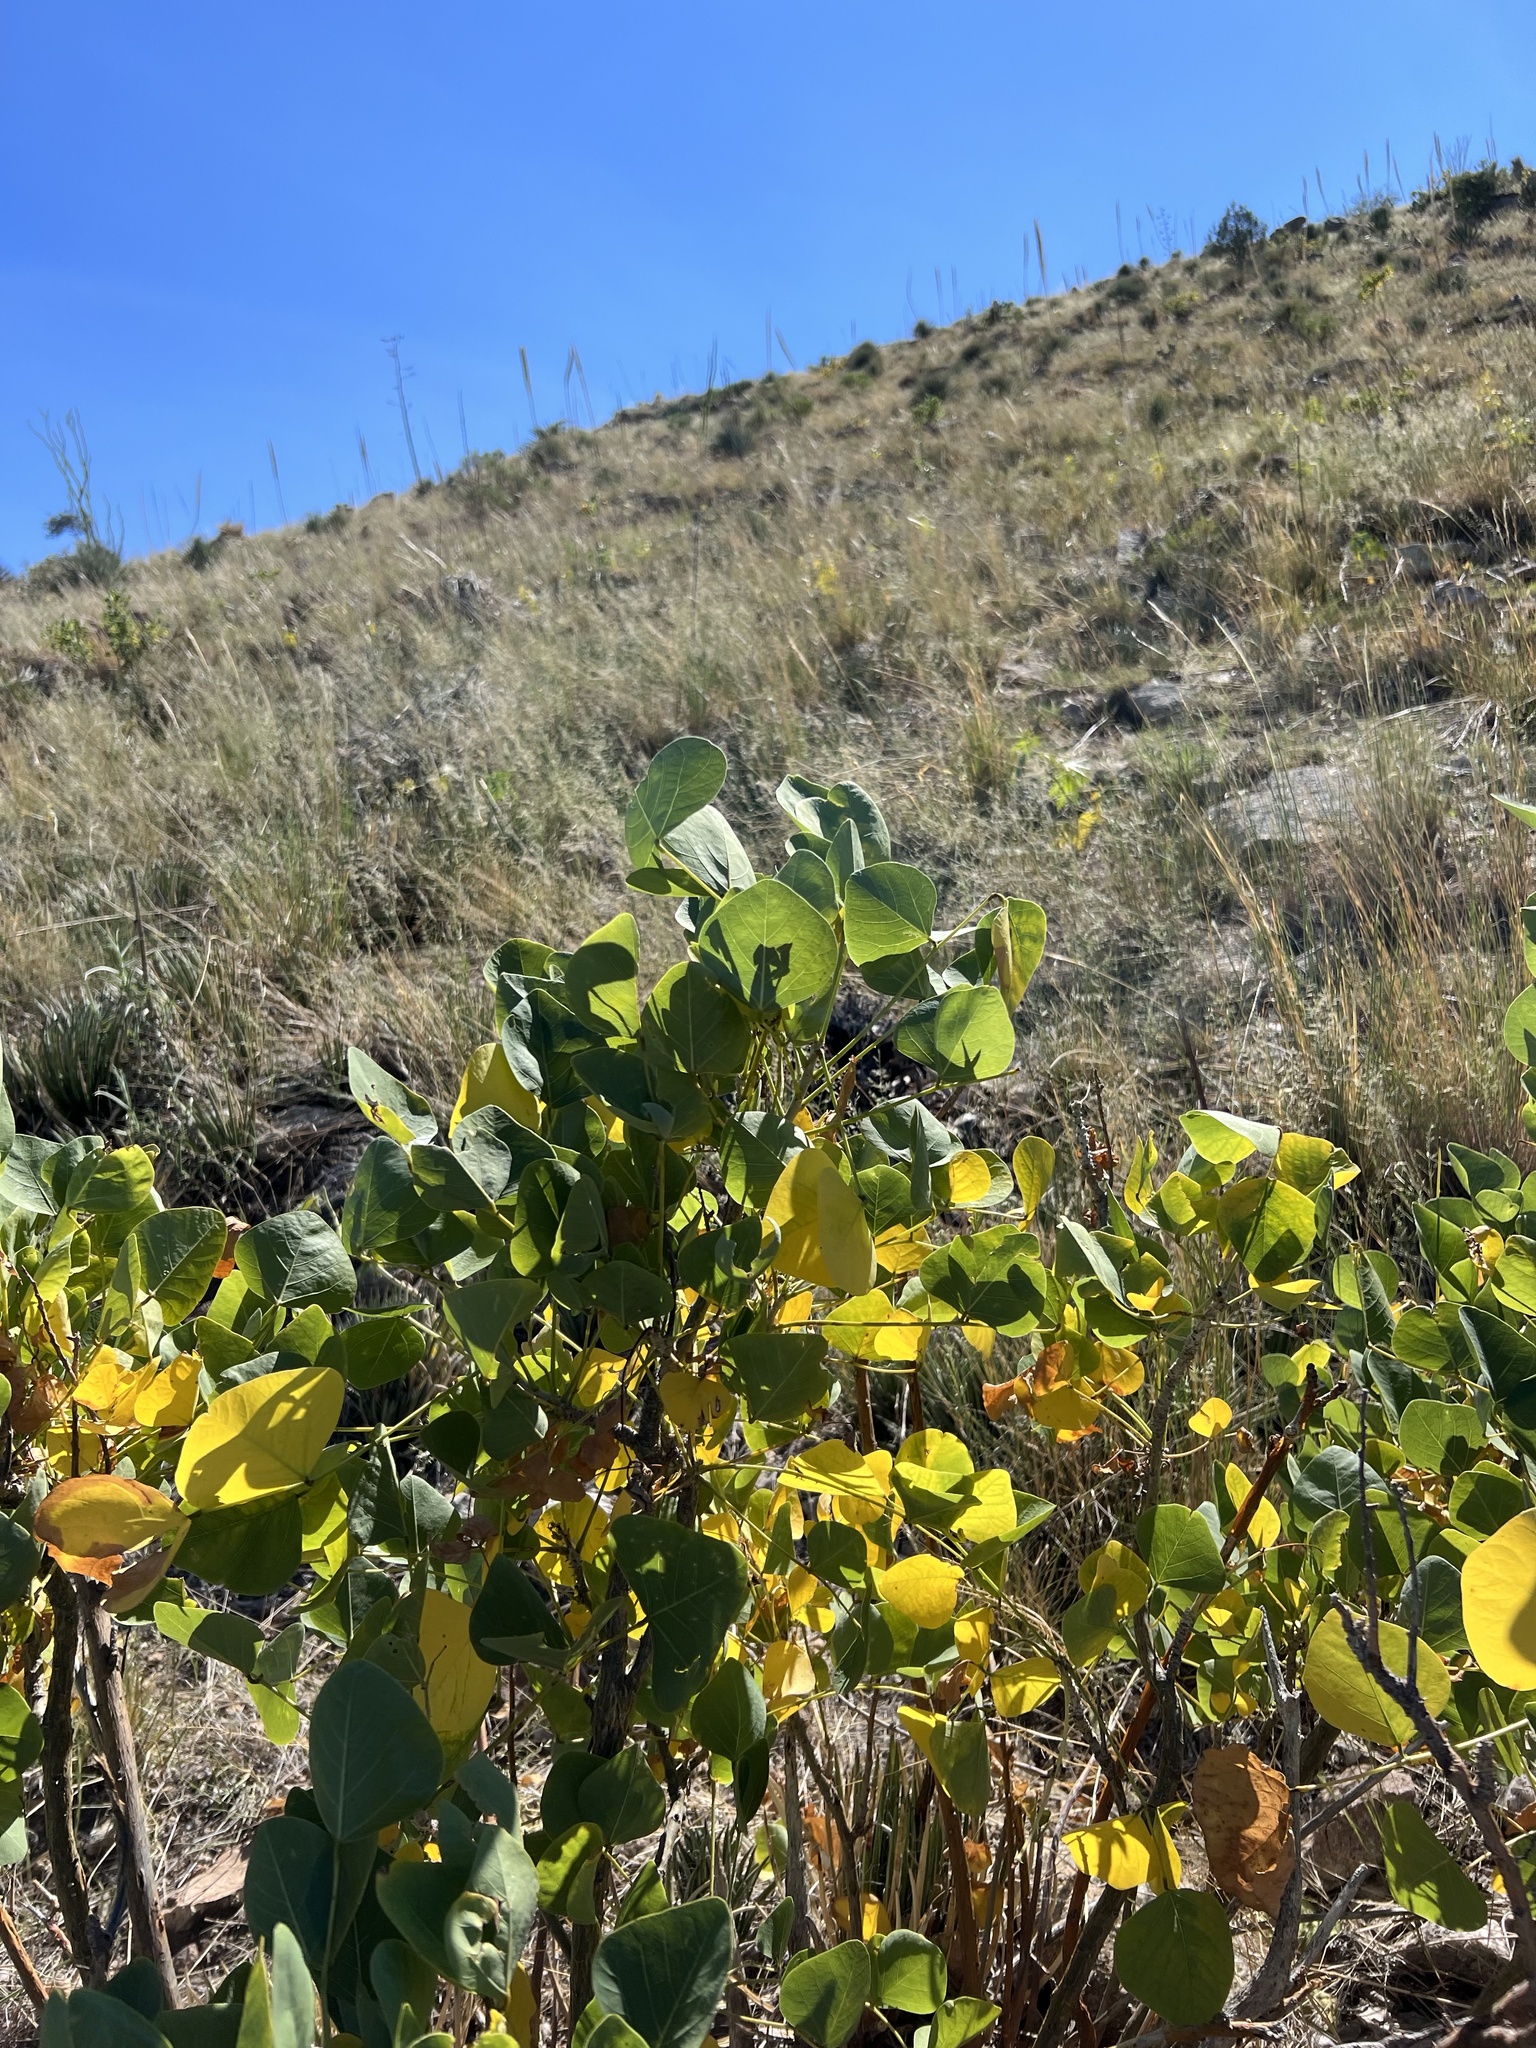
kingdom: Plantae
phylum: Tracheophyta
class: Magnoliopsida
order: Fabales
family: Fabaceae
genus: Erythrina
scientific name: Erythrina flabelliformis
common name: Chilicote
